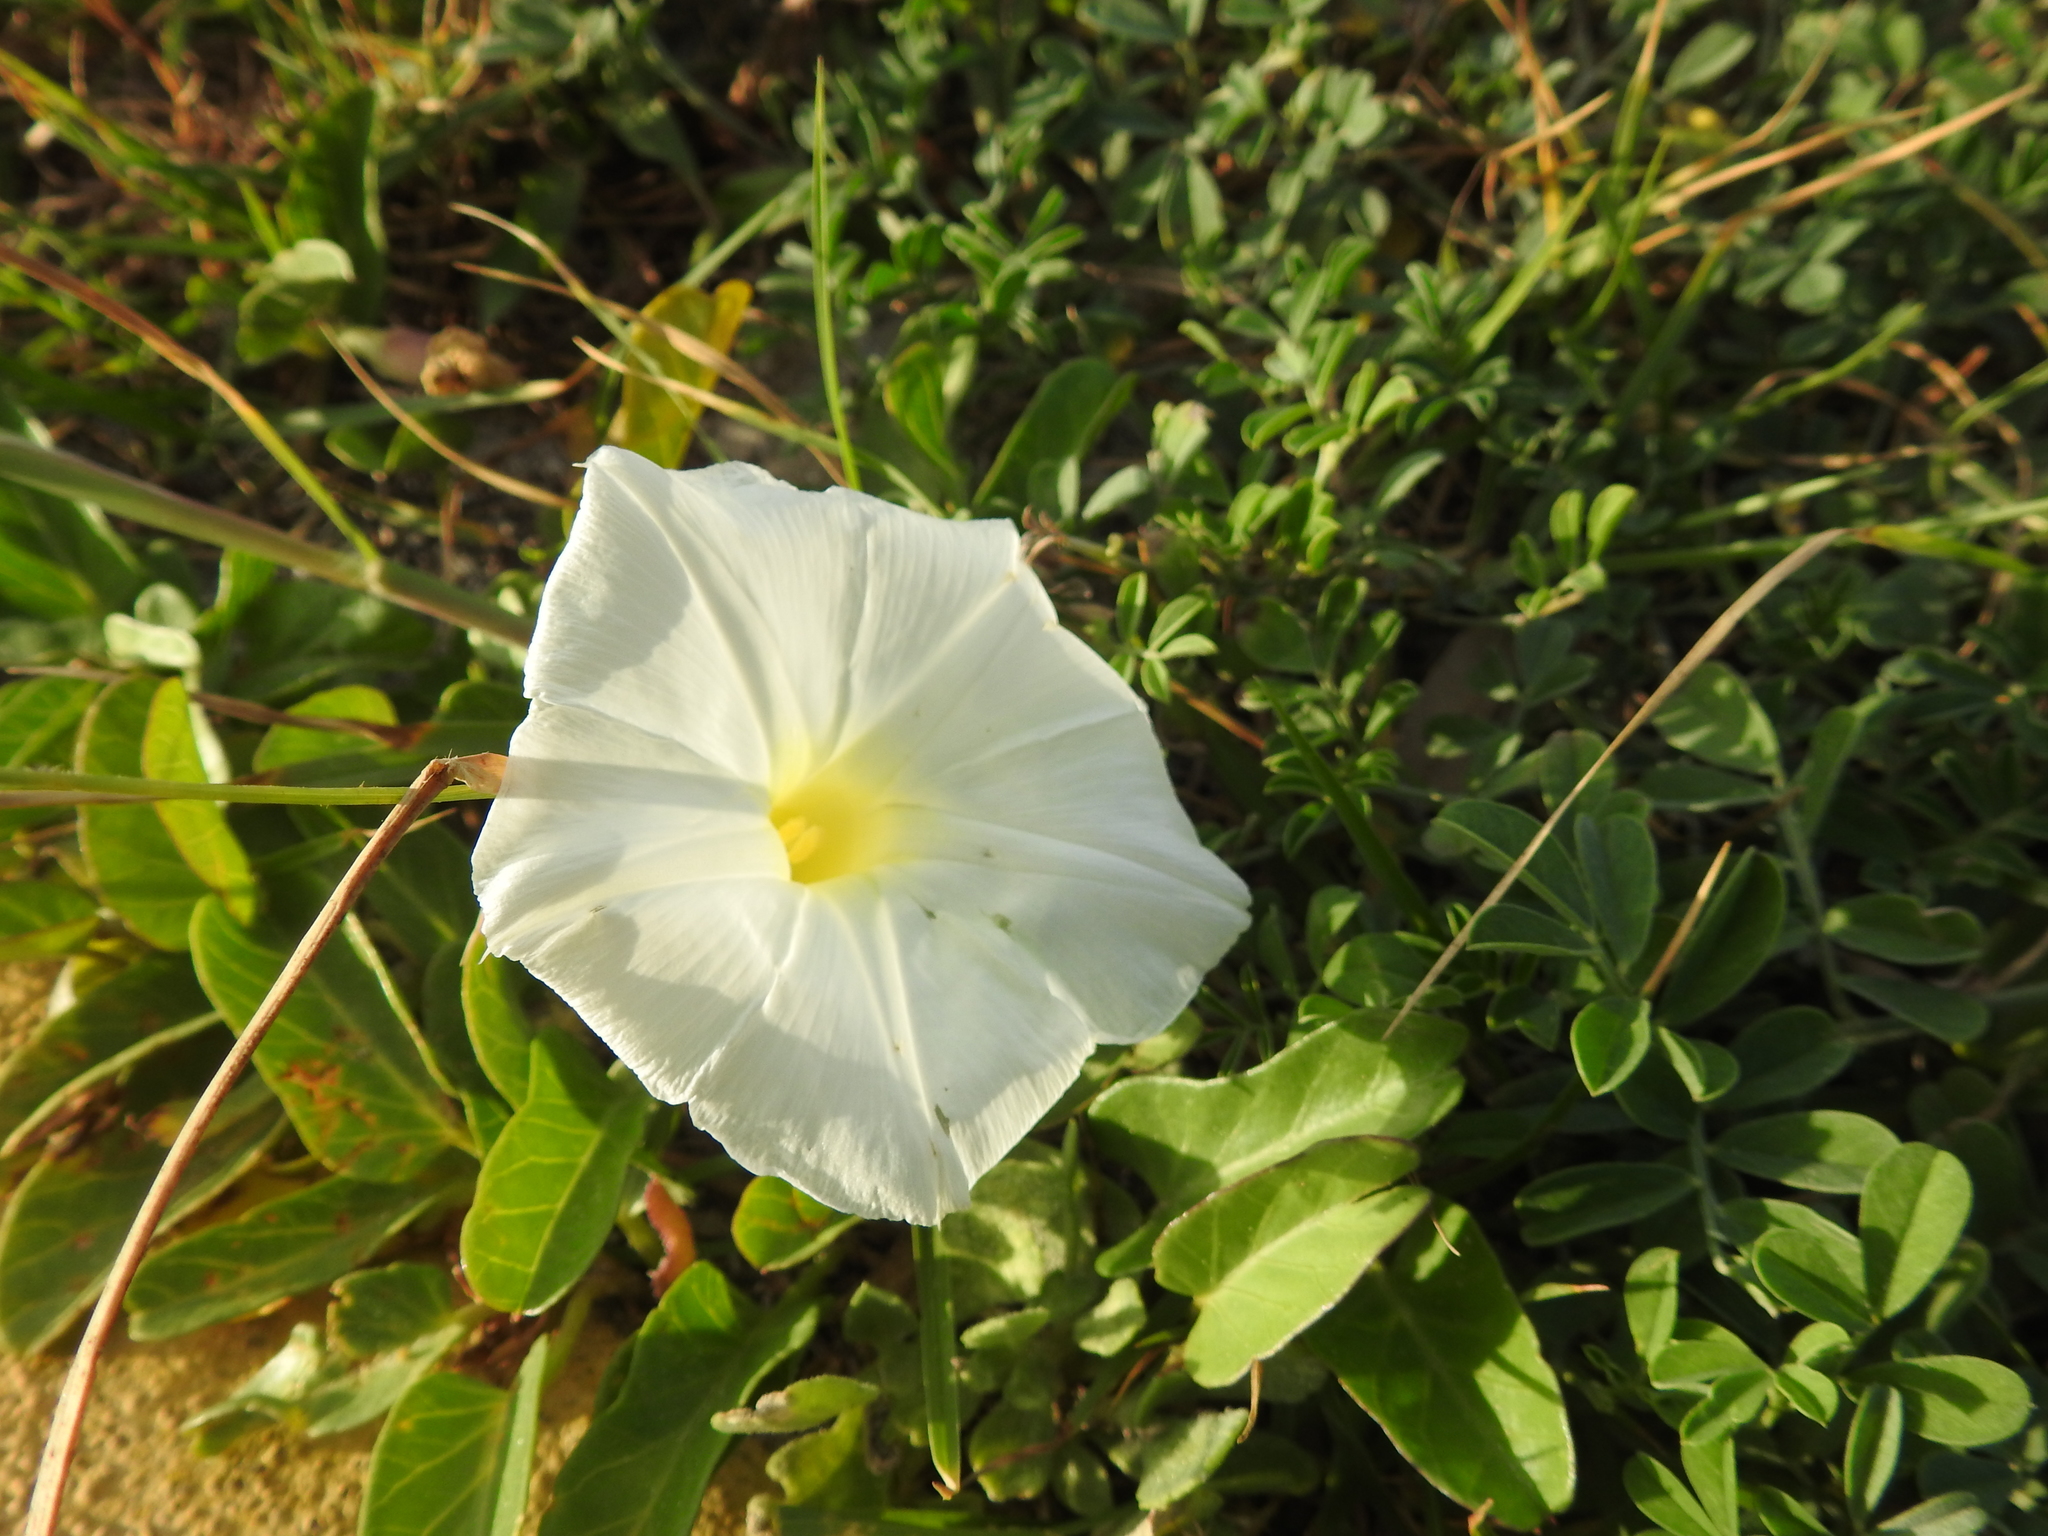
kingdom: Plantae
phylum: Tracheophyta
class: Magnoliopsida
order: Solanales
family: Convolvulaceae
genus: Ipomoea
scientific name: Ipomoea imperati
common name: Fiddle-leaf morning-glory
